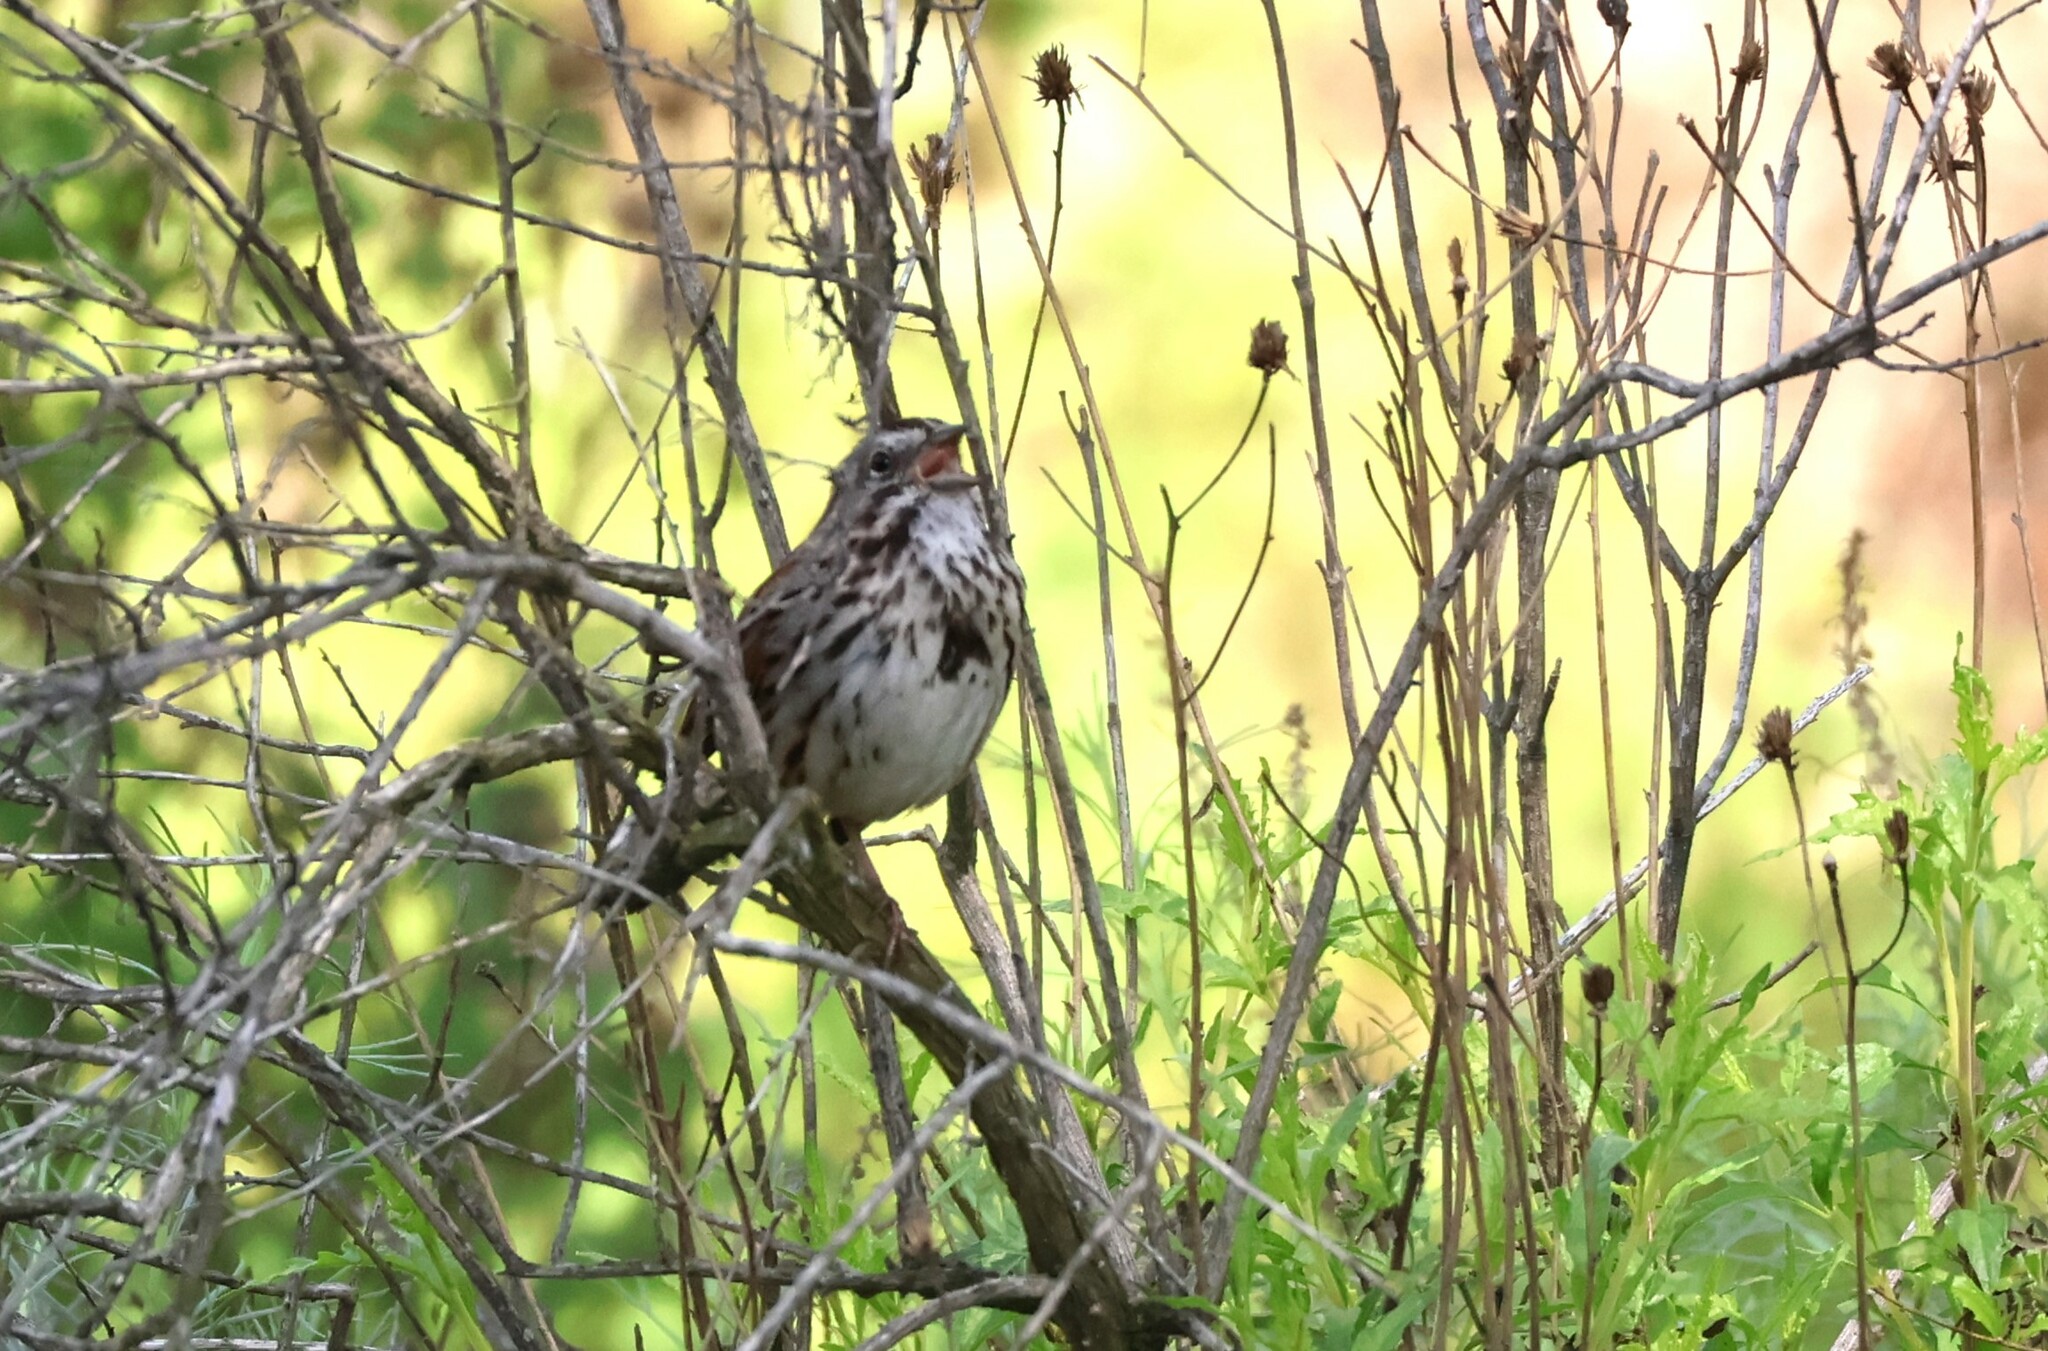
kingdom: Animalia
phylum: Chordata
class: Aves
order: Passeriformes
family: Passerellidae
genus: Melospiza
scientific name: Melospiza melodia
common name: Song sparrow
